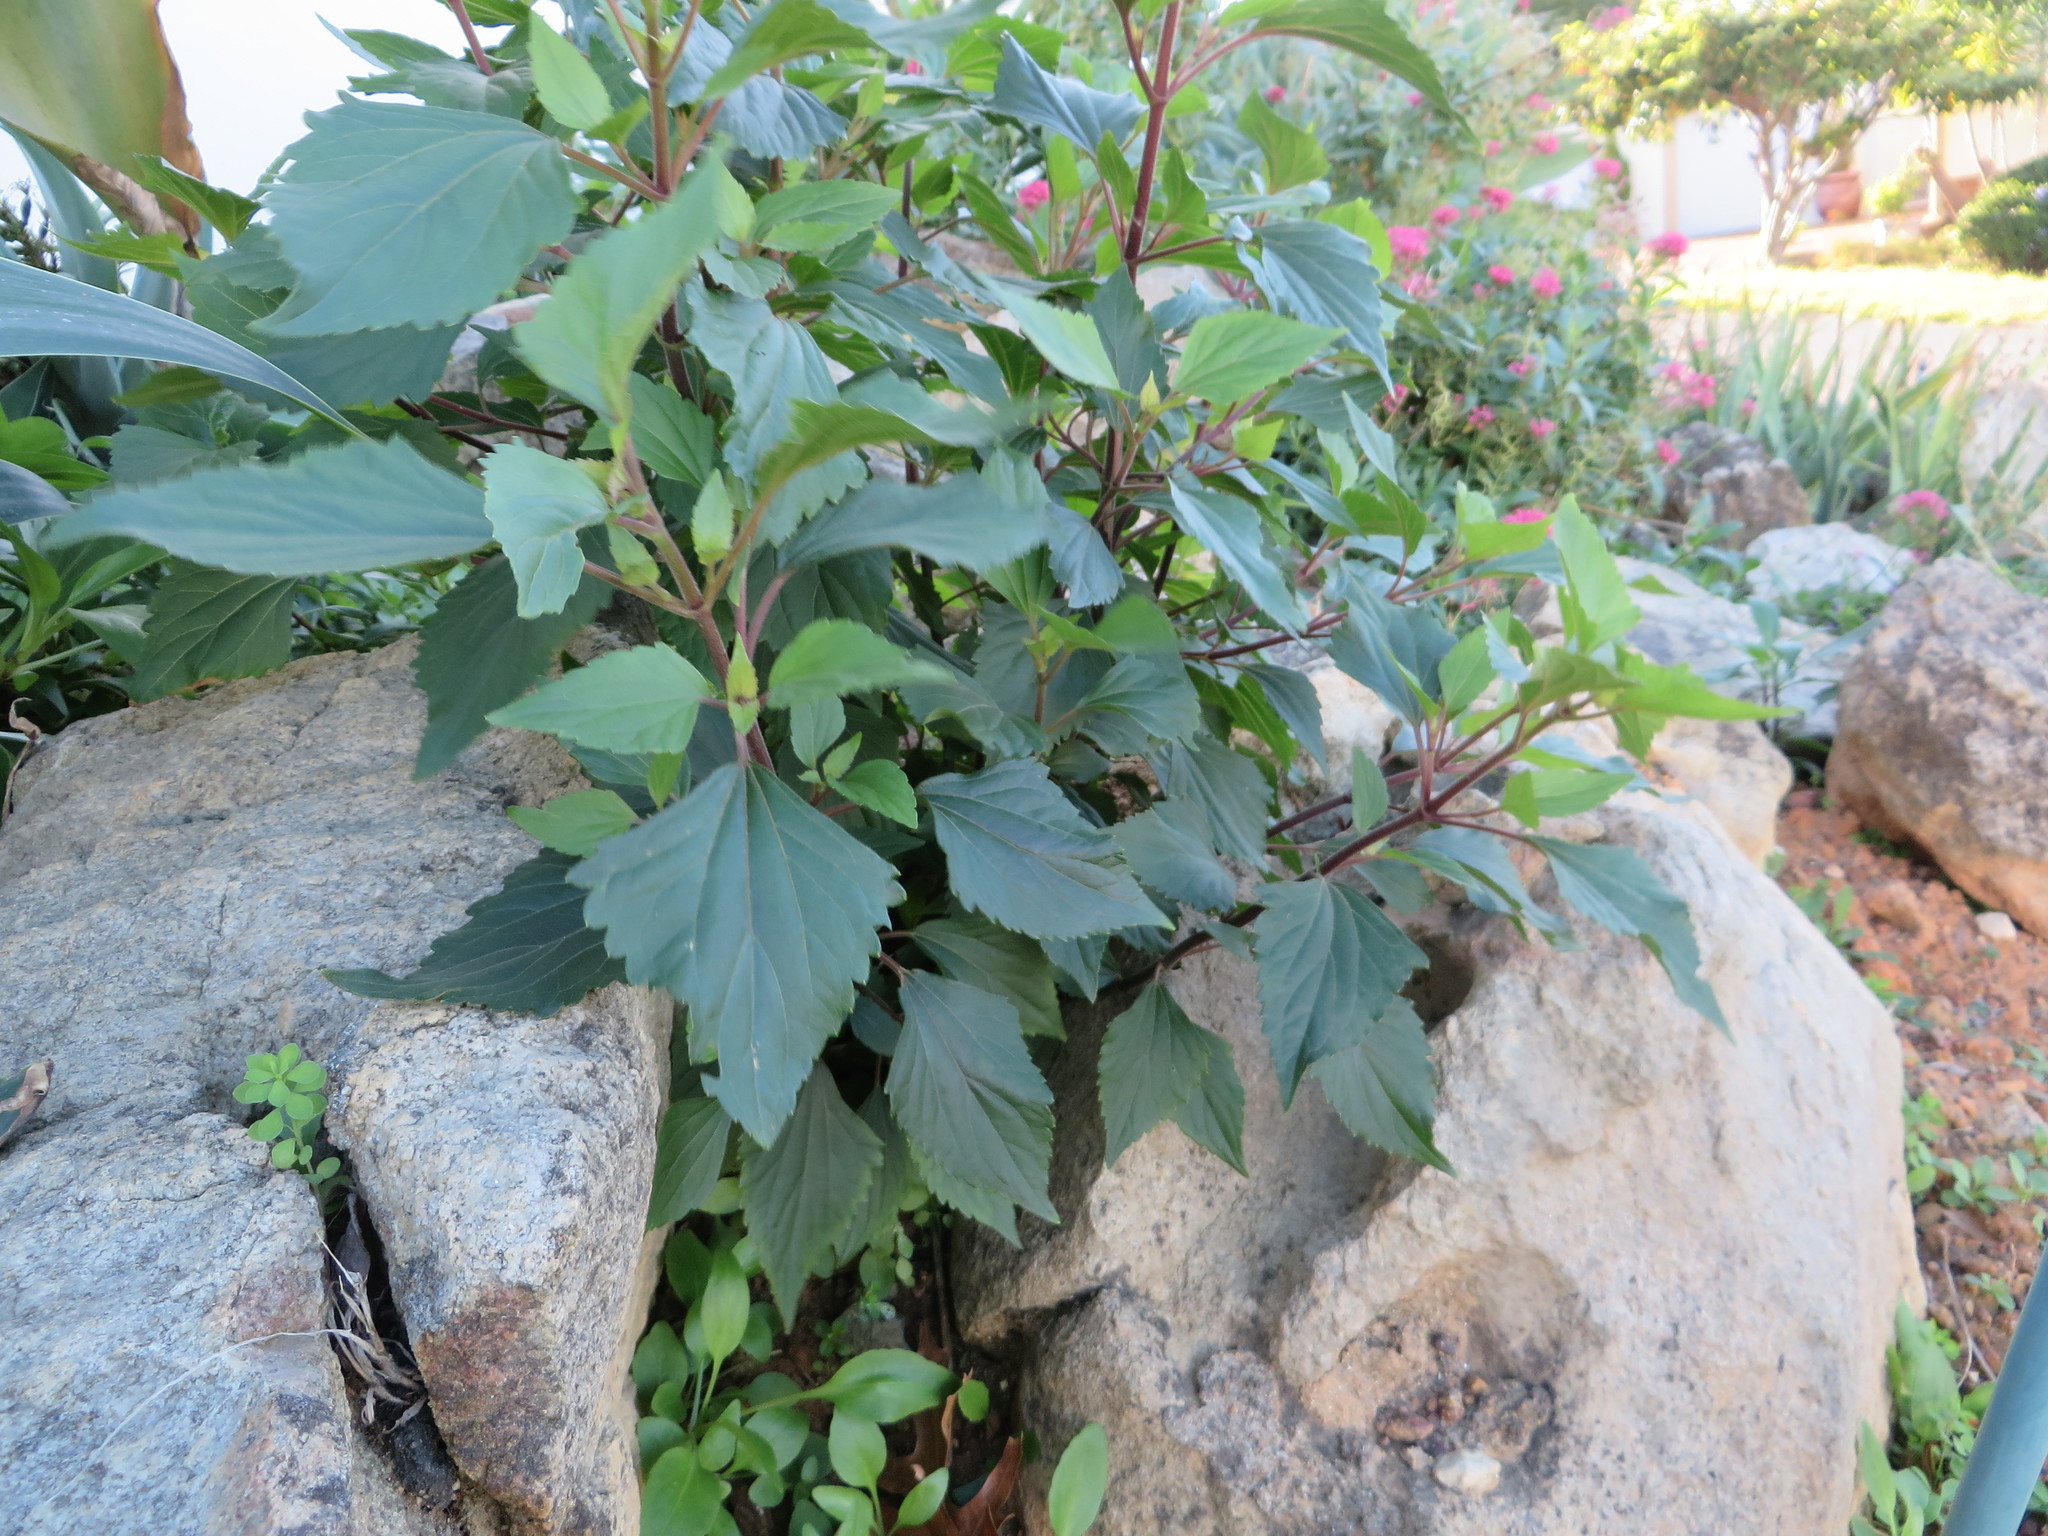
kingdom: Plantae
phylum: Tracheophyta
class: Magnoliopsida
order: Asterales
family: Asteraceae
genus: Ageratina
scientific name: Ageratina adenophora
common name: Sticky snakeroot
